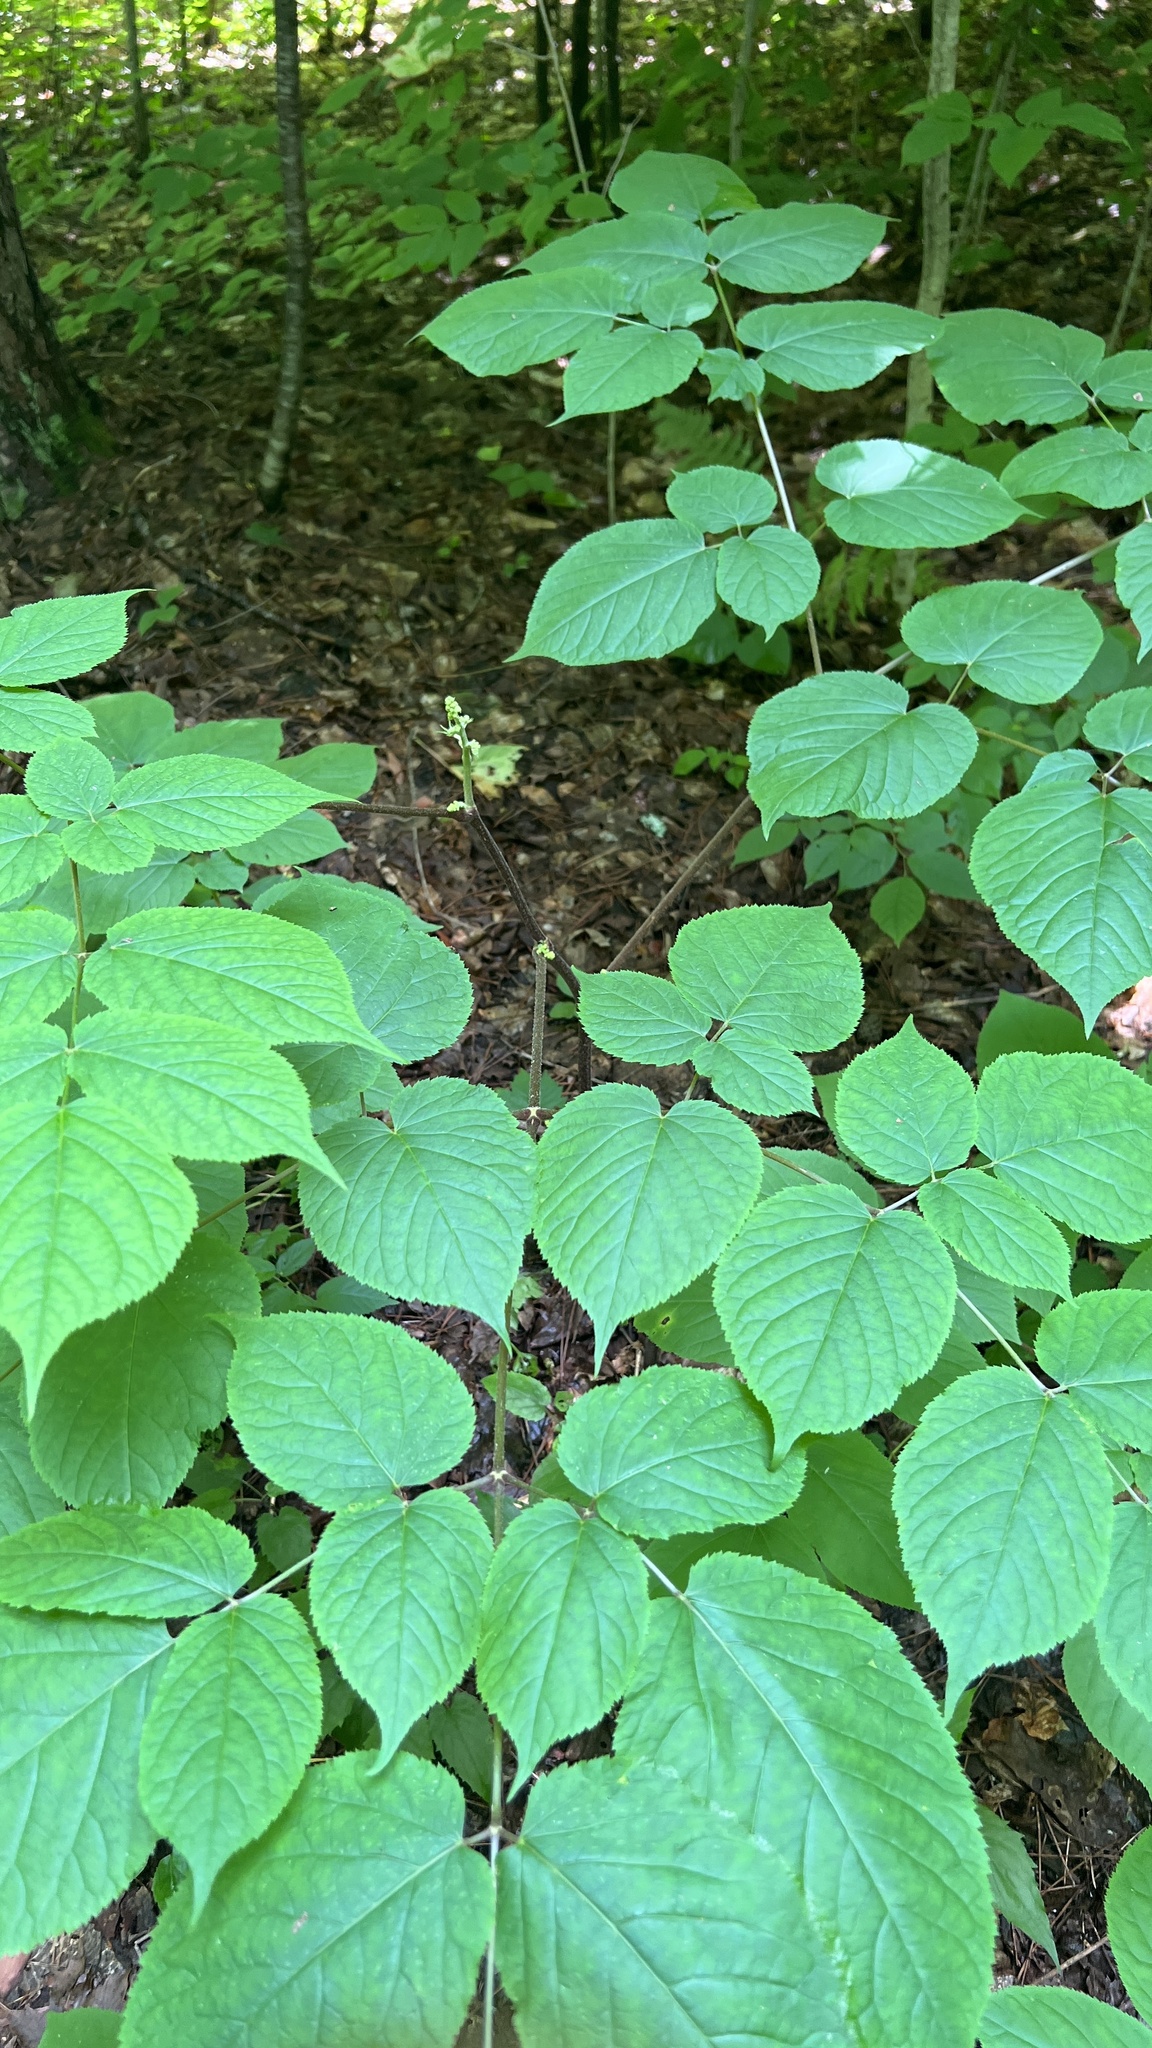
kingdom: Plantae
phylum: Tracheophyta
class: Magnoliopsida
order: Apiales
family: Araliaceae
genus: Aralia
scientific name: Aralia racemosa
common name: American-spikenard
